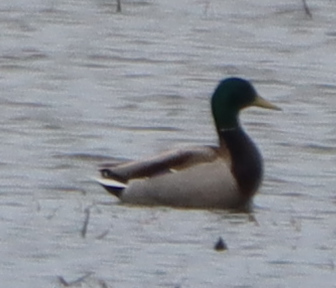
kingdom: Animalia
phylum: Chordata
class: Aves
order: Anseriformes
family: Anatidae
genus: Anas
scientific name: Anas platyrhynchos
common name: Mallard
